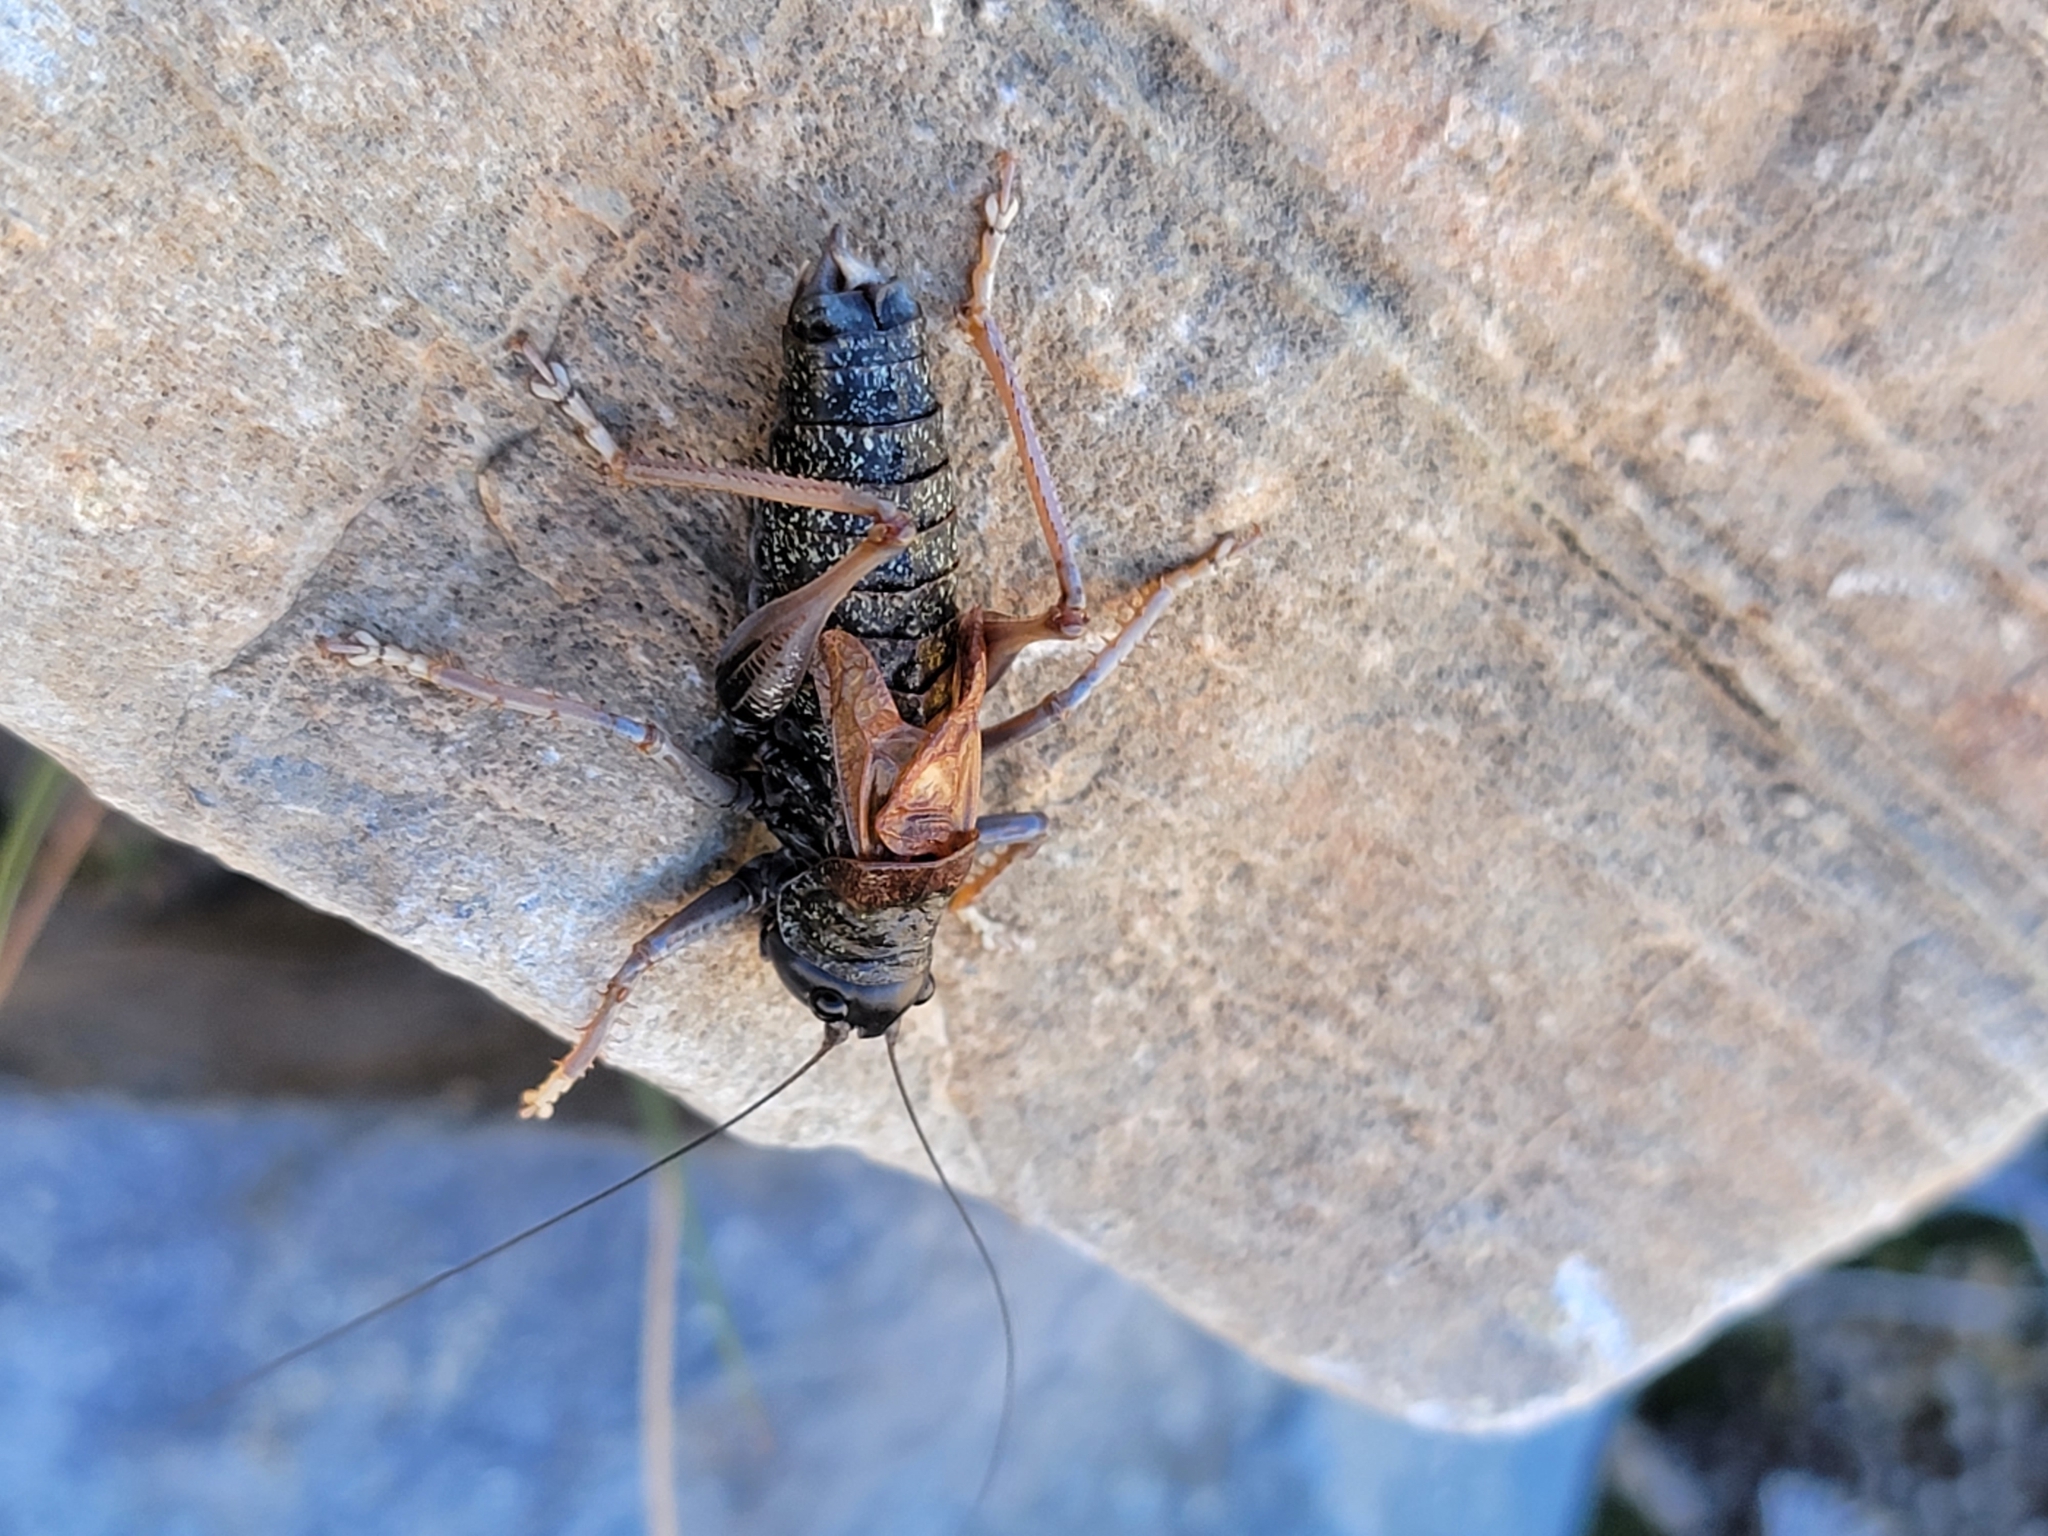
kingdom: Animalia
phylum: Arthropoda
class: Insecta
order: Orthoptera
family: Tettigoniidae
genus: Acrodectes
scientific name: Acrodectes philopagus
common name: Alpine shieldback
